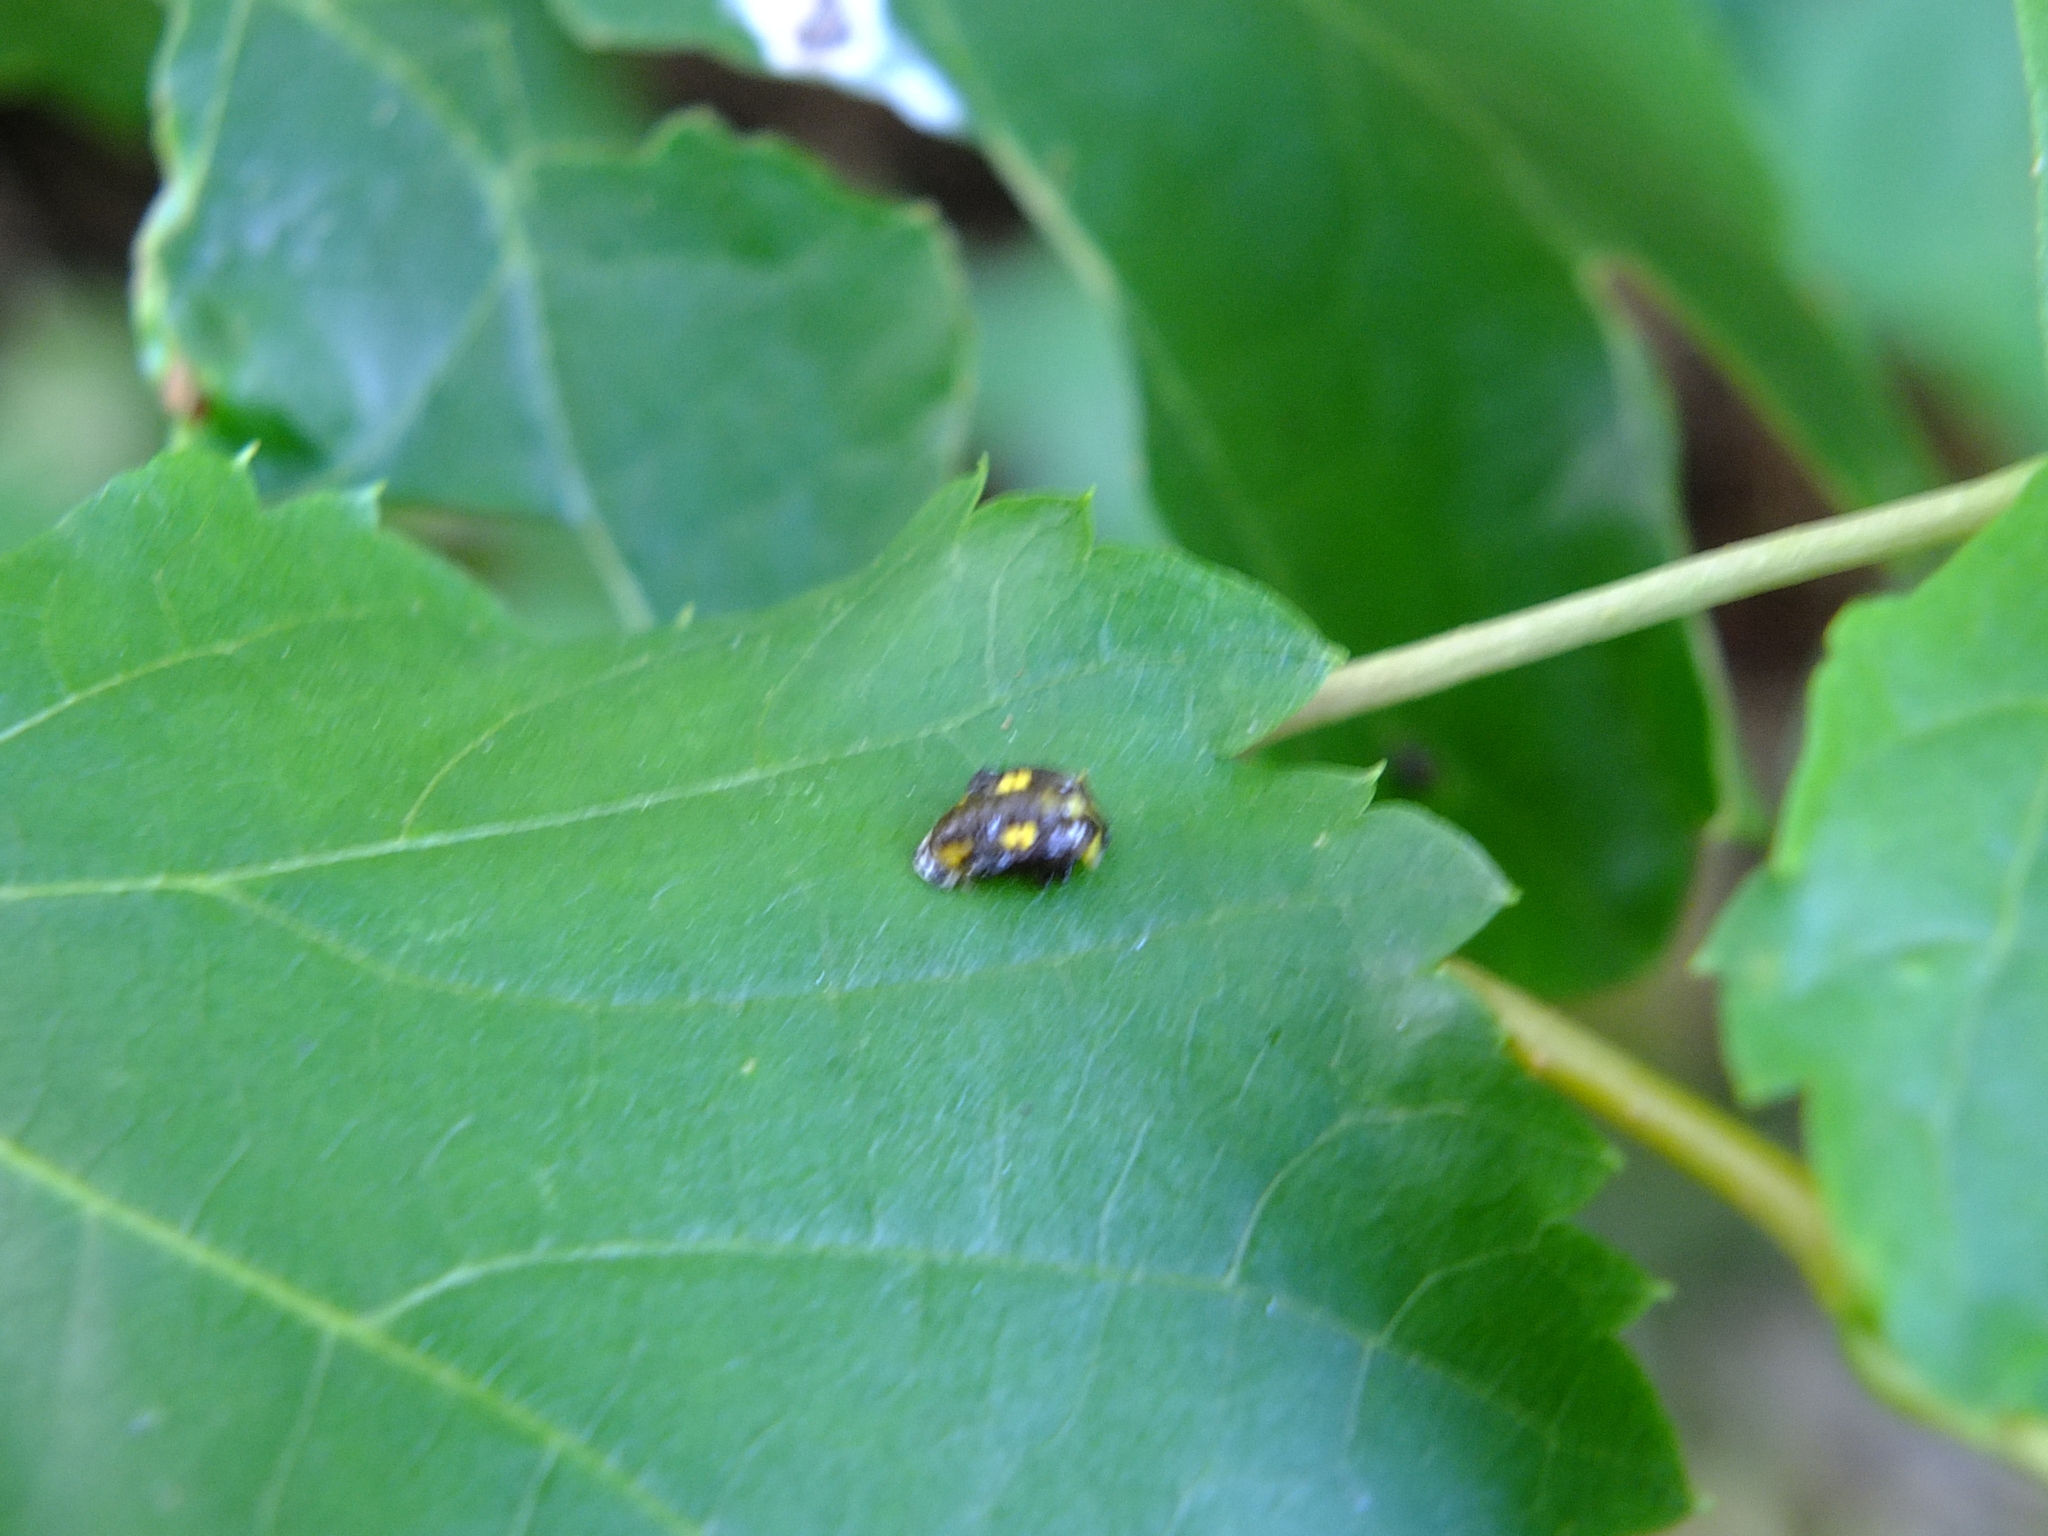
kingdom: Animalia
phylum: Arthropoda
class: Insecta
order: Coleoptera
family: Coccinellidae
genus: Halyzia
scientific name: Halyzia sedecimguttata
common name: Orange ladybird
